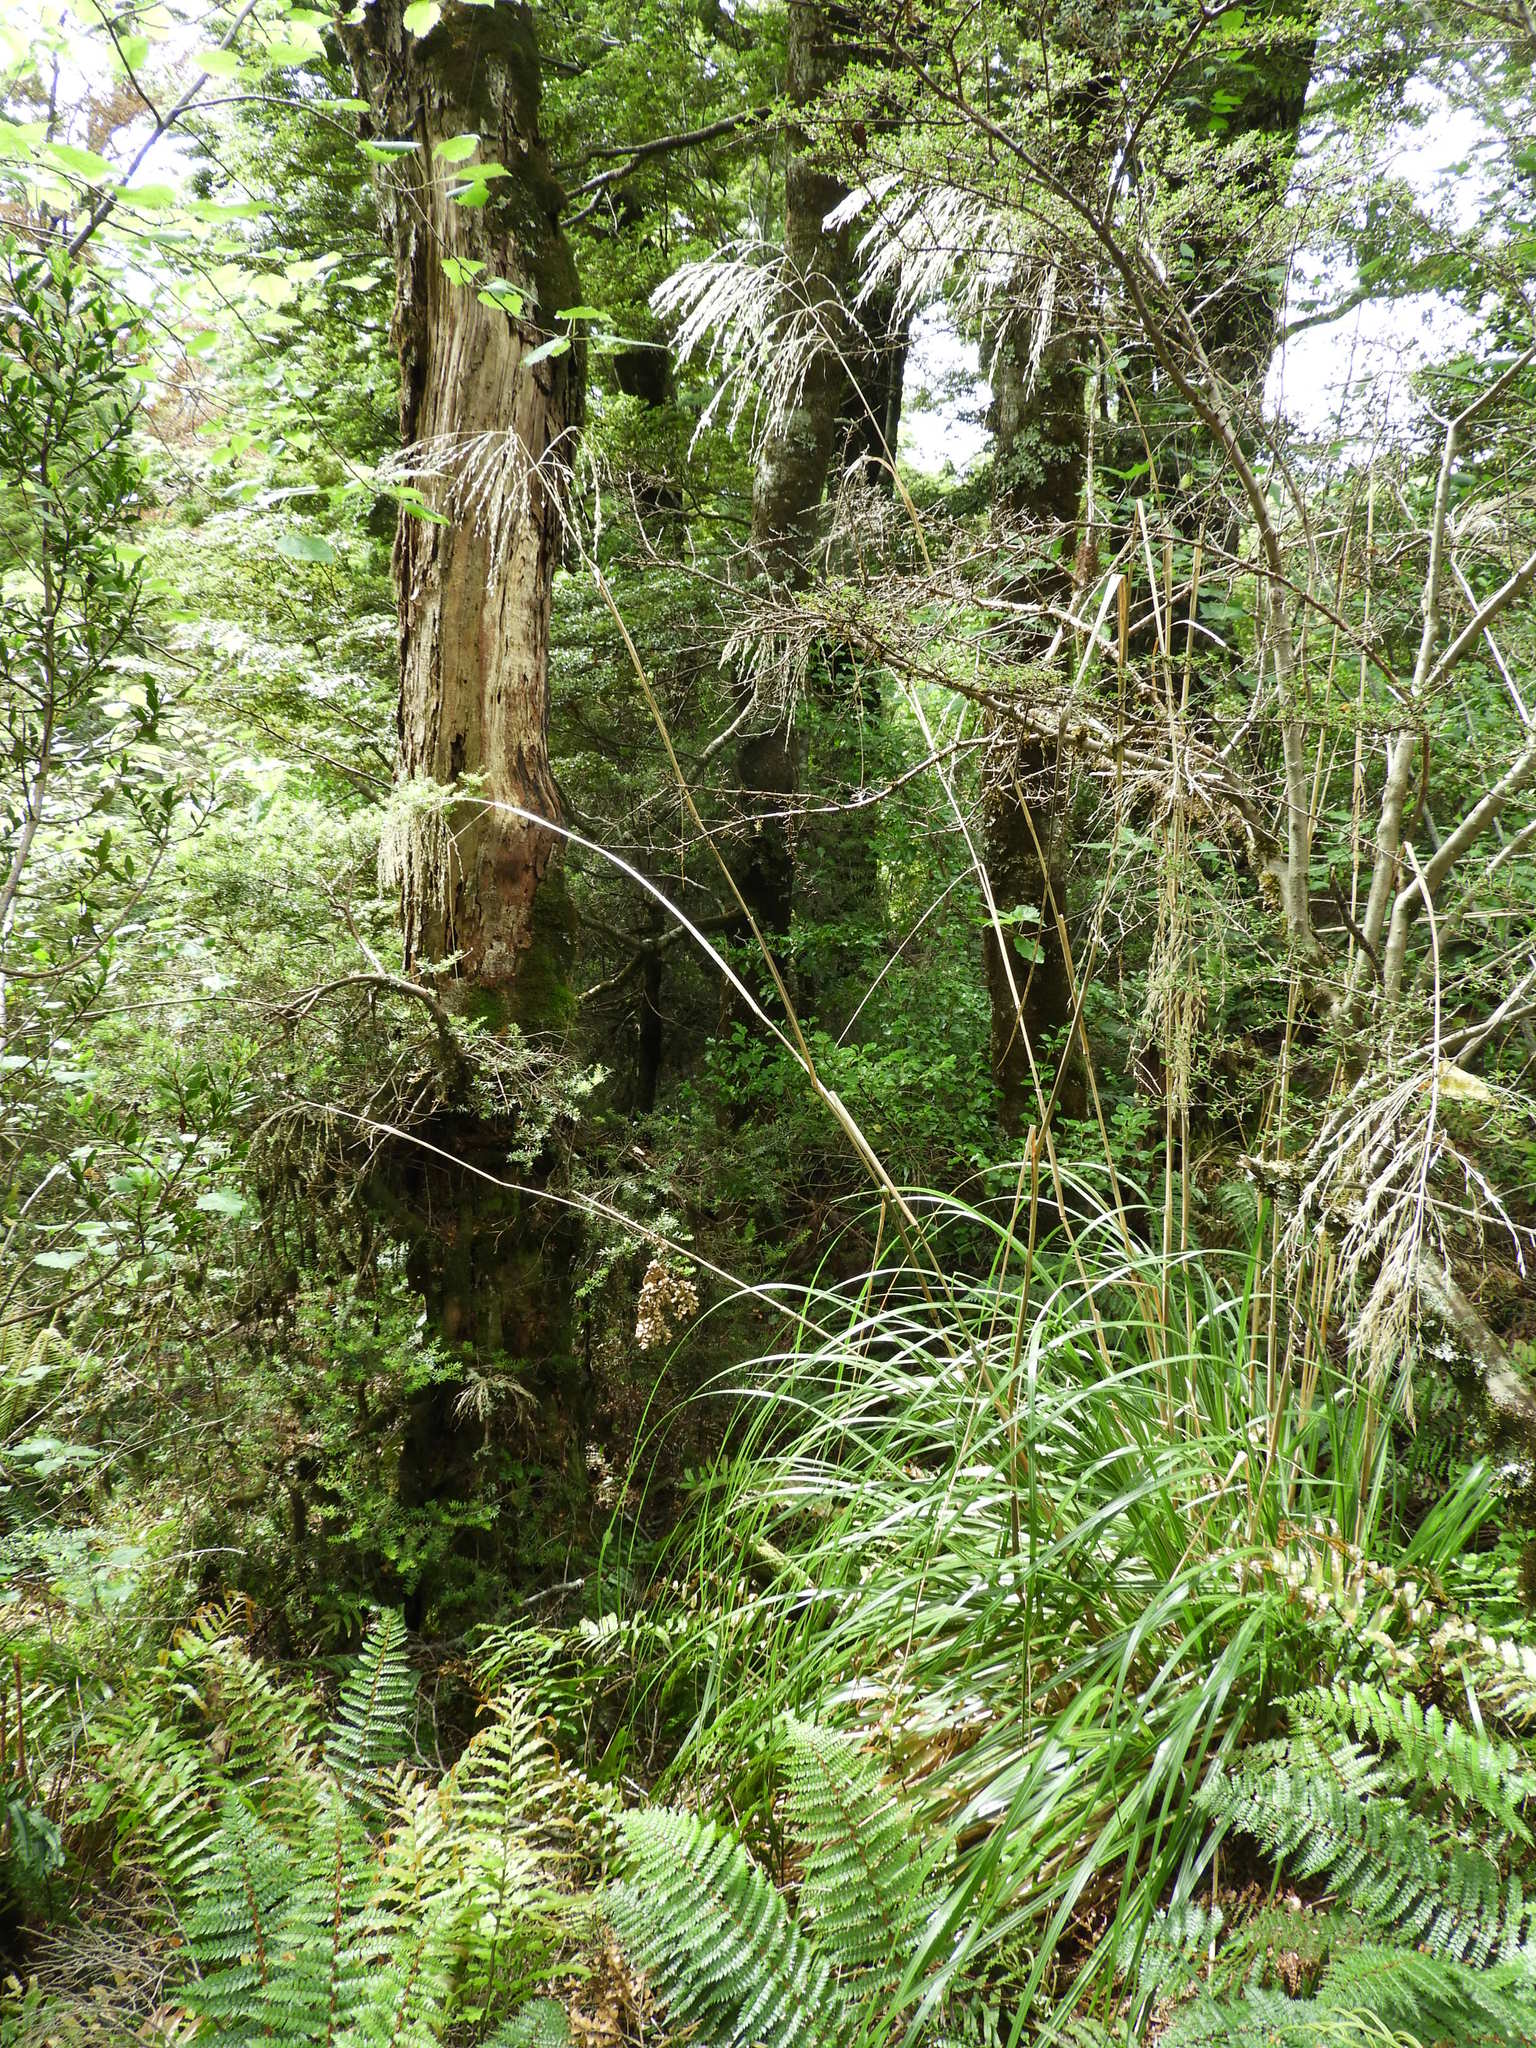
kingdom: Plantae
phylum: Tracheophyta
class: Liliopsida
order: Poales
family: Poaceae
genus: Chionochloa
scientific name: Chionochloa conspicua
